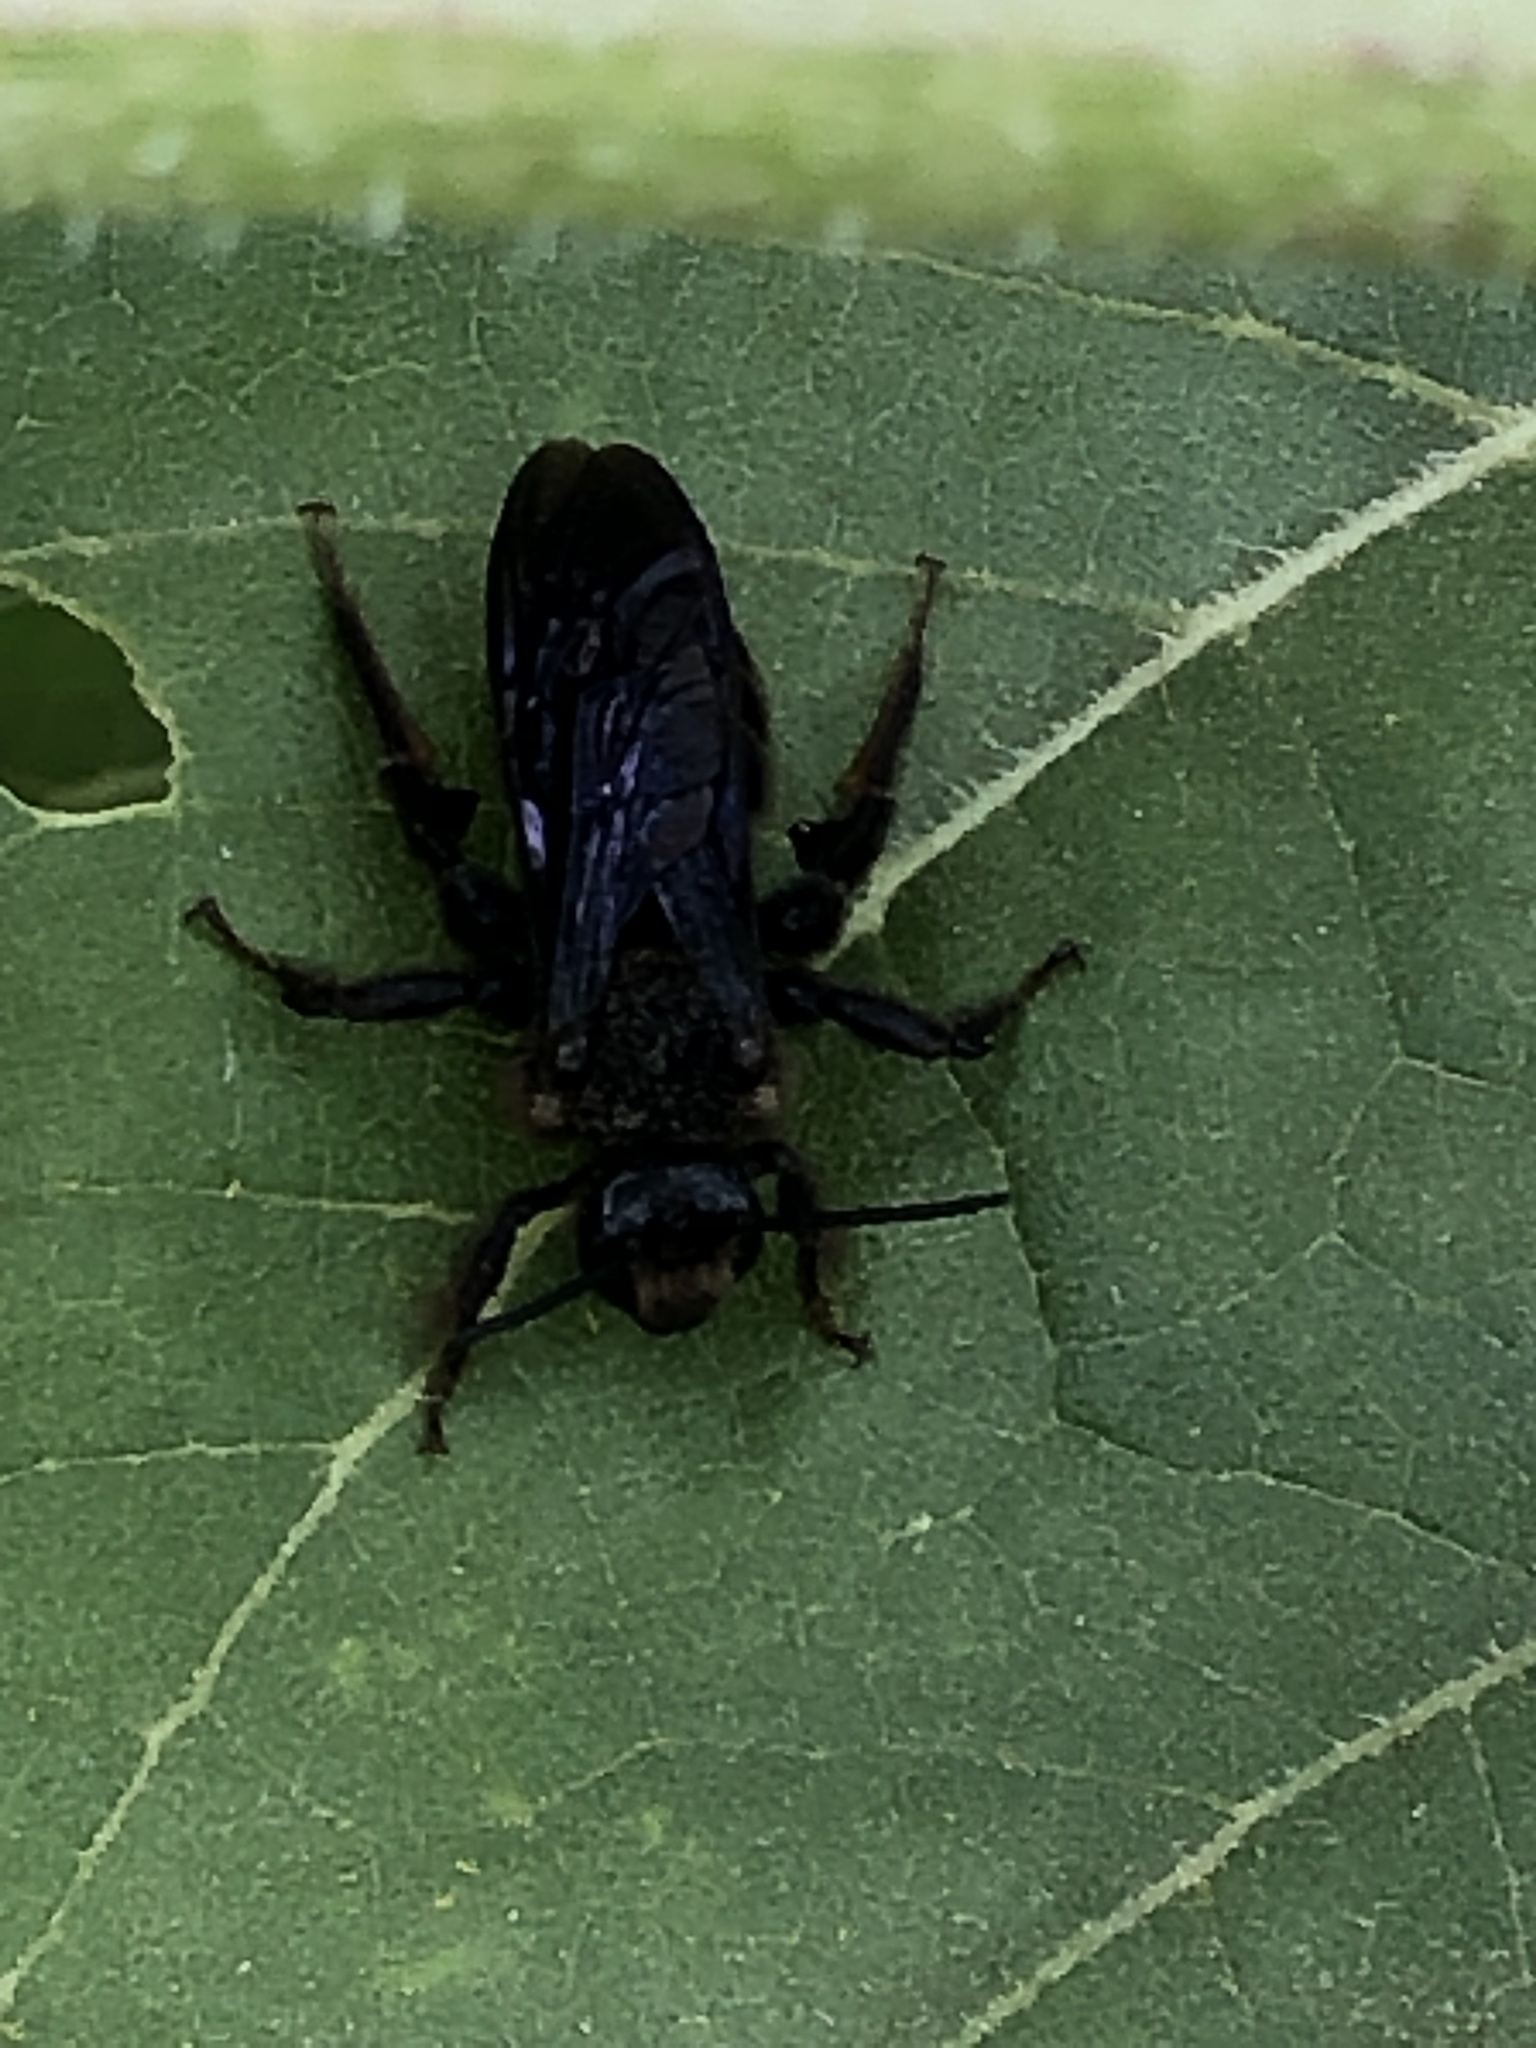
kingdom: Animalia
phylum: Arthropoda
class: Insecta
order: Hymenoptera
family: Halictidae
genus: Dieunomia
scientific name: Dieunomia heteropoda
